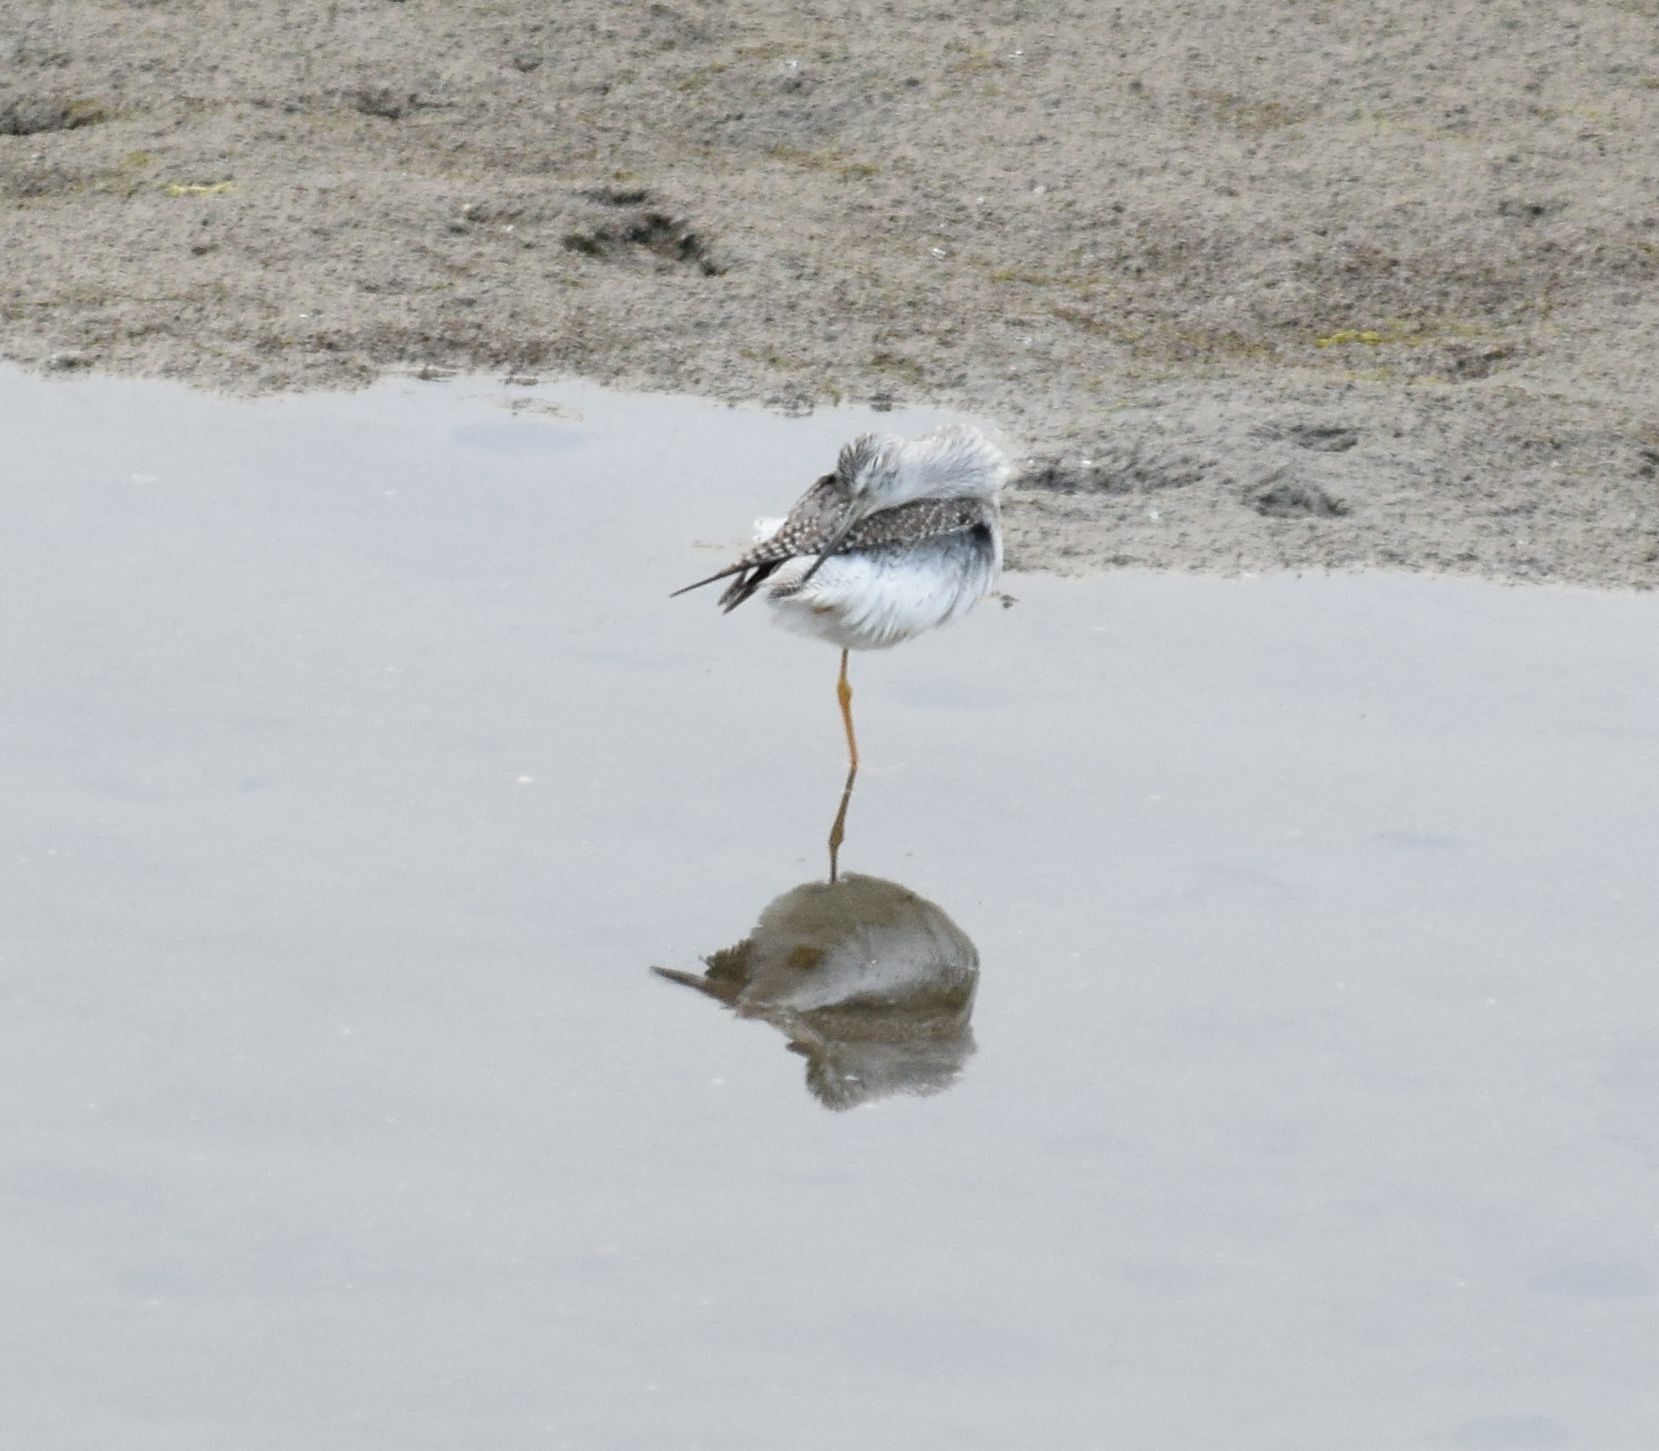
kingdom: Animalia
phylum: Chordata
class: Aves
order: Charadriiformes
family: Scolopacidae
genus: Tringa
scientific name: Tringa melanoleuca
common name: Greater yellowlegs
